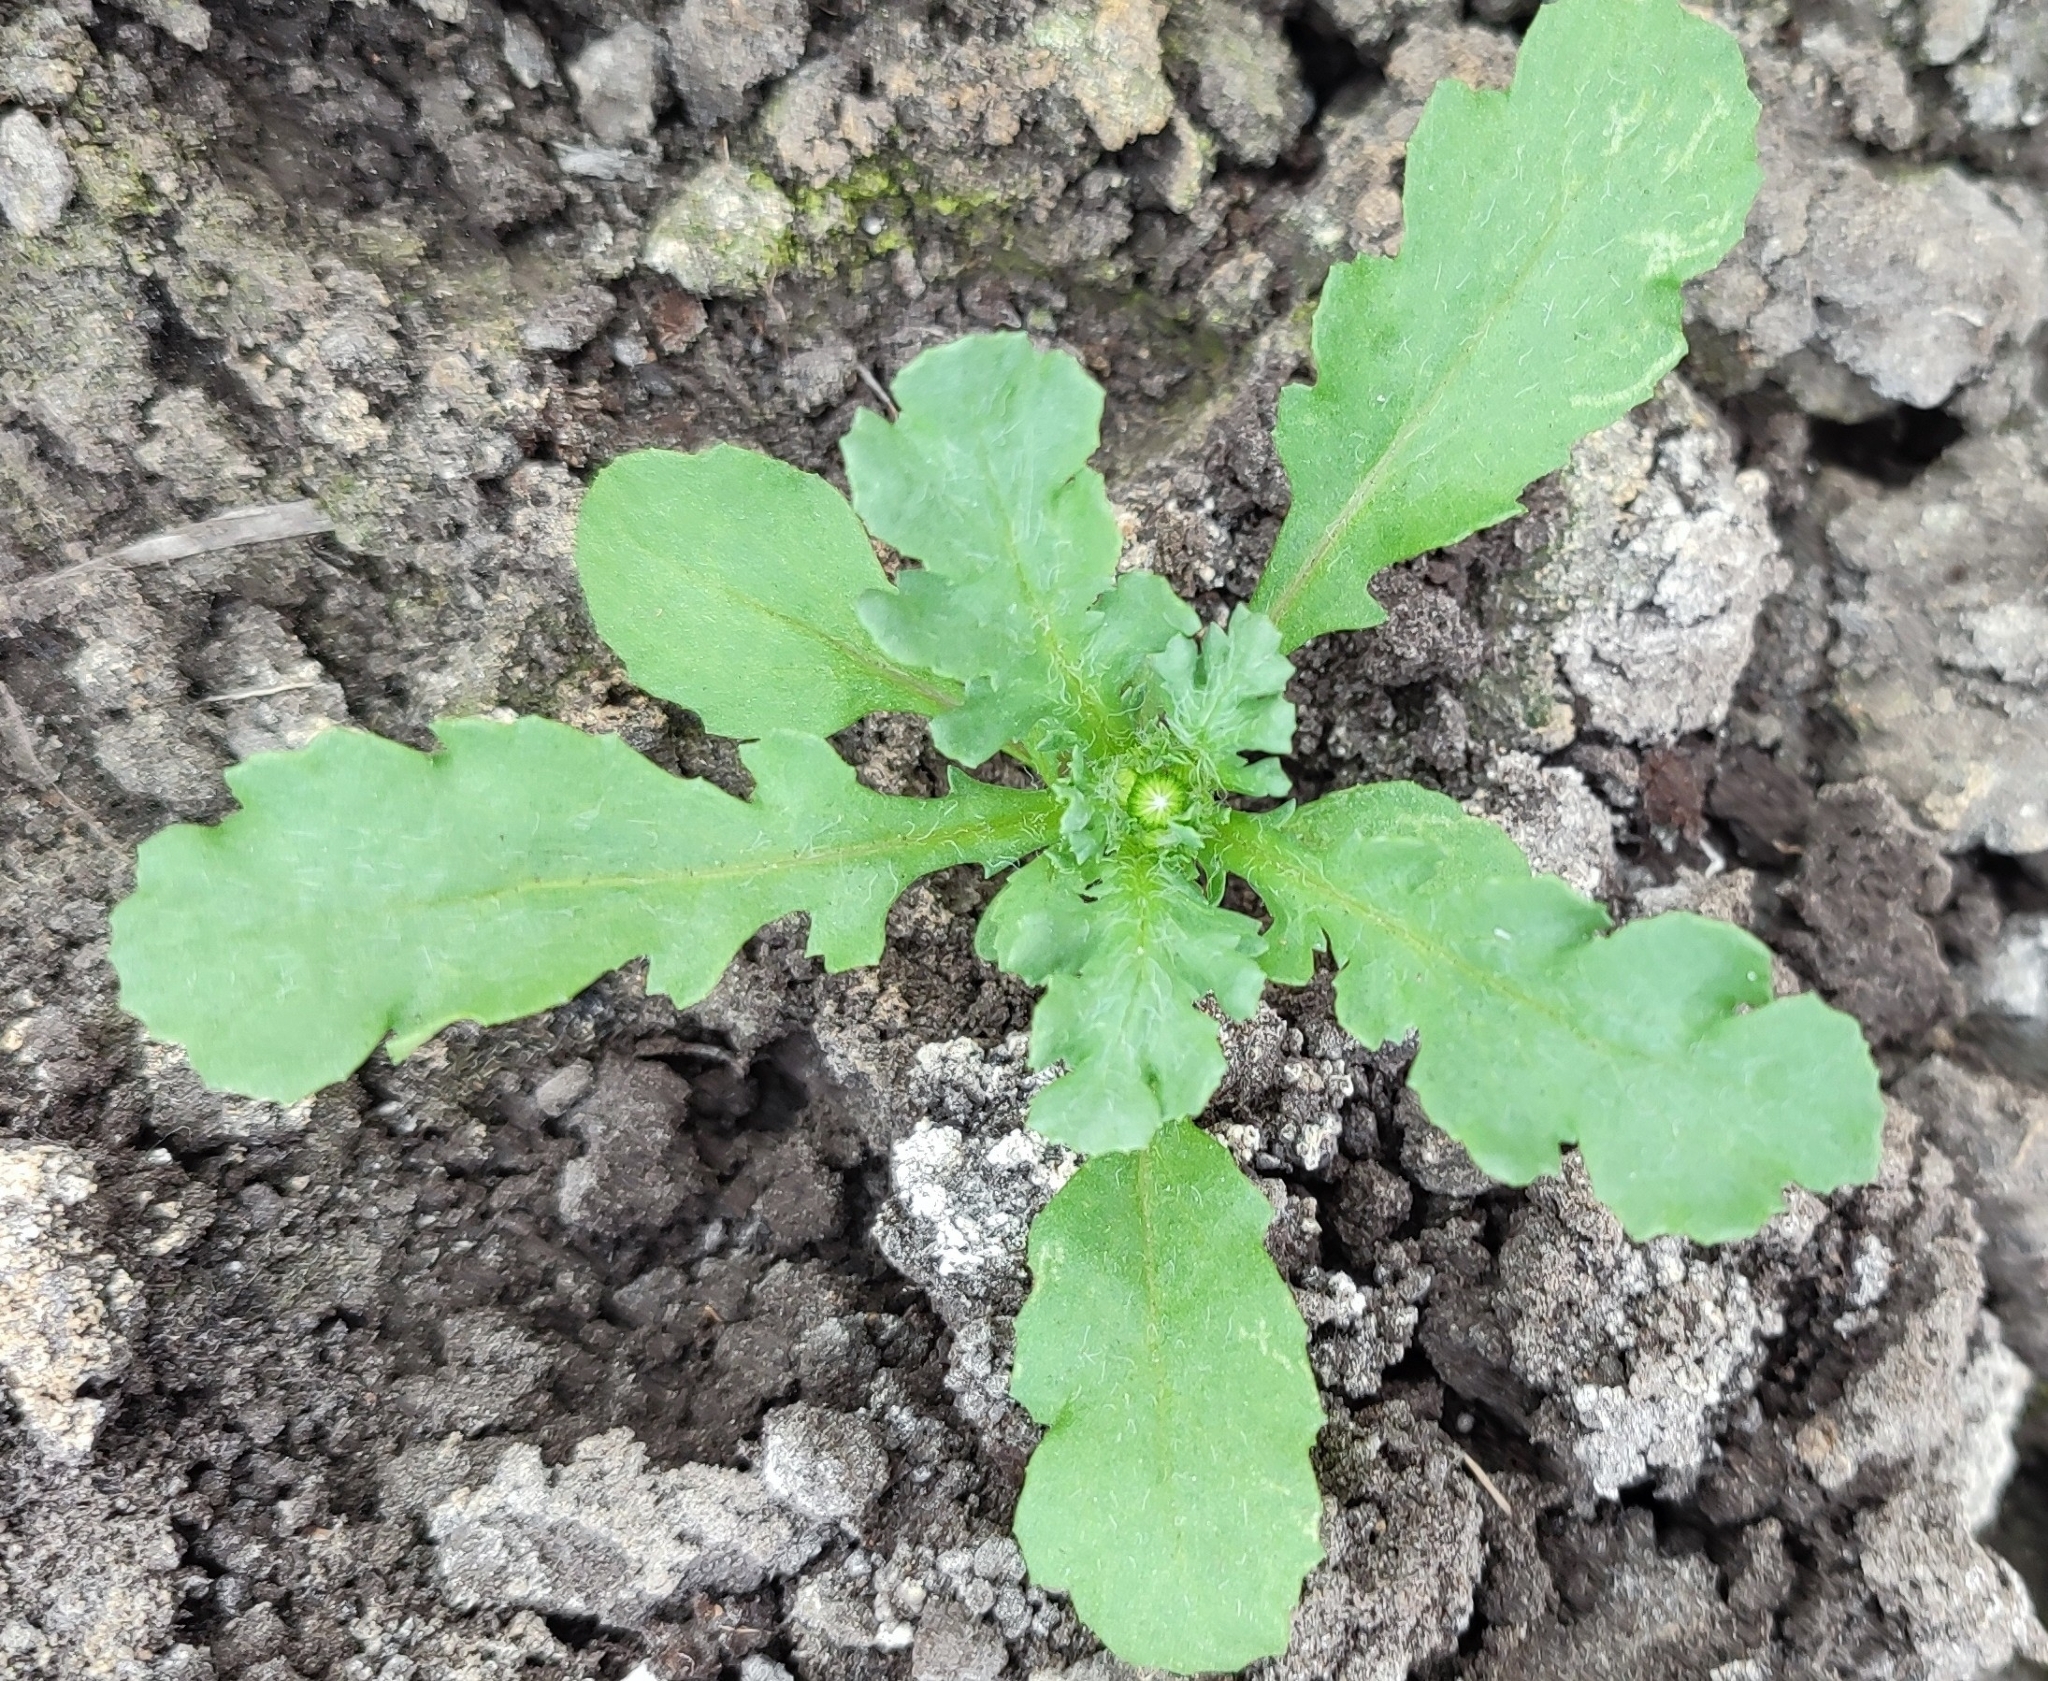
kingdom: Plantae
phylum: Tracheophyta
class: Magnoliopsida
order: Asterales
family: Asteraceae
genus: Senecio
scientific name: Senecio vulgaris
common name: Old-man-in-the-spring
